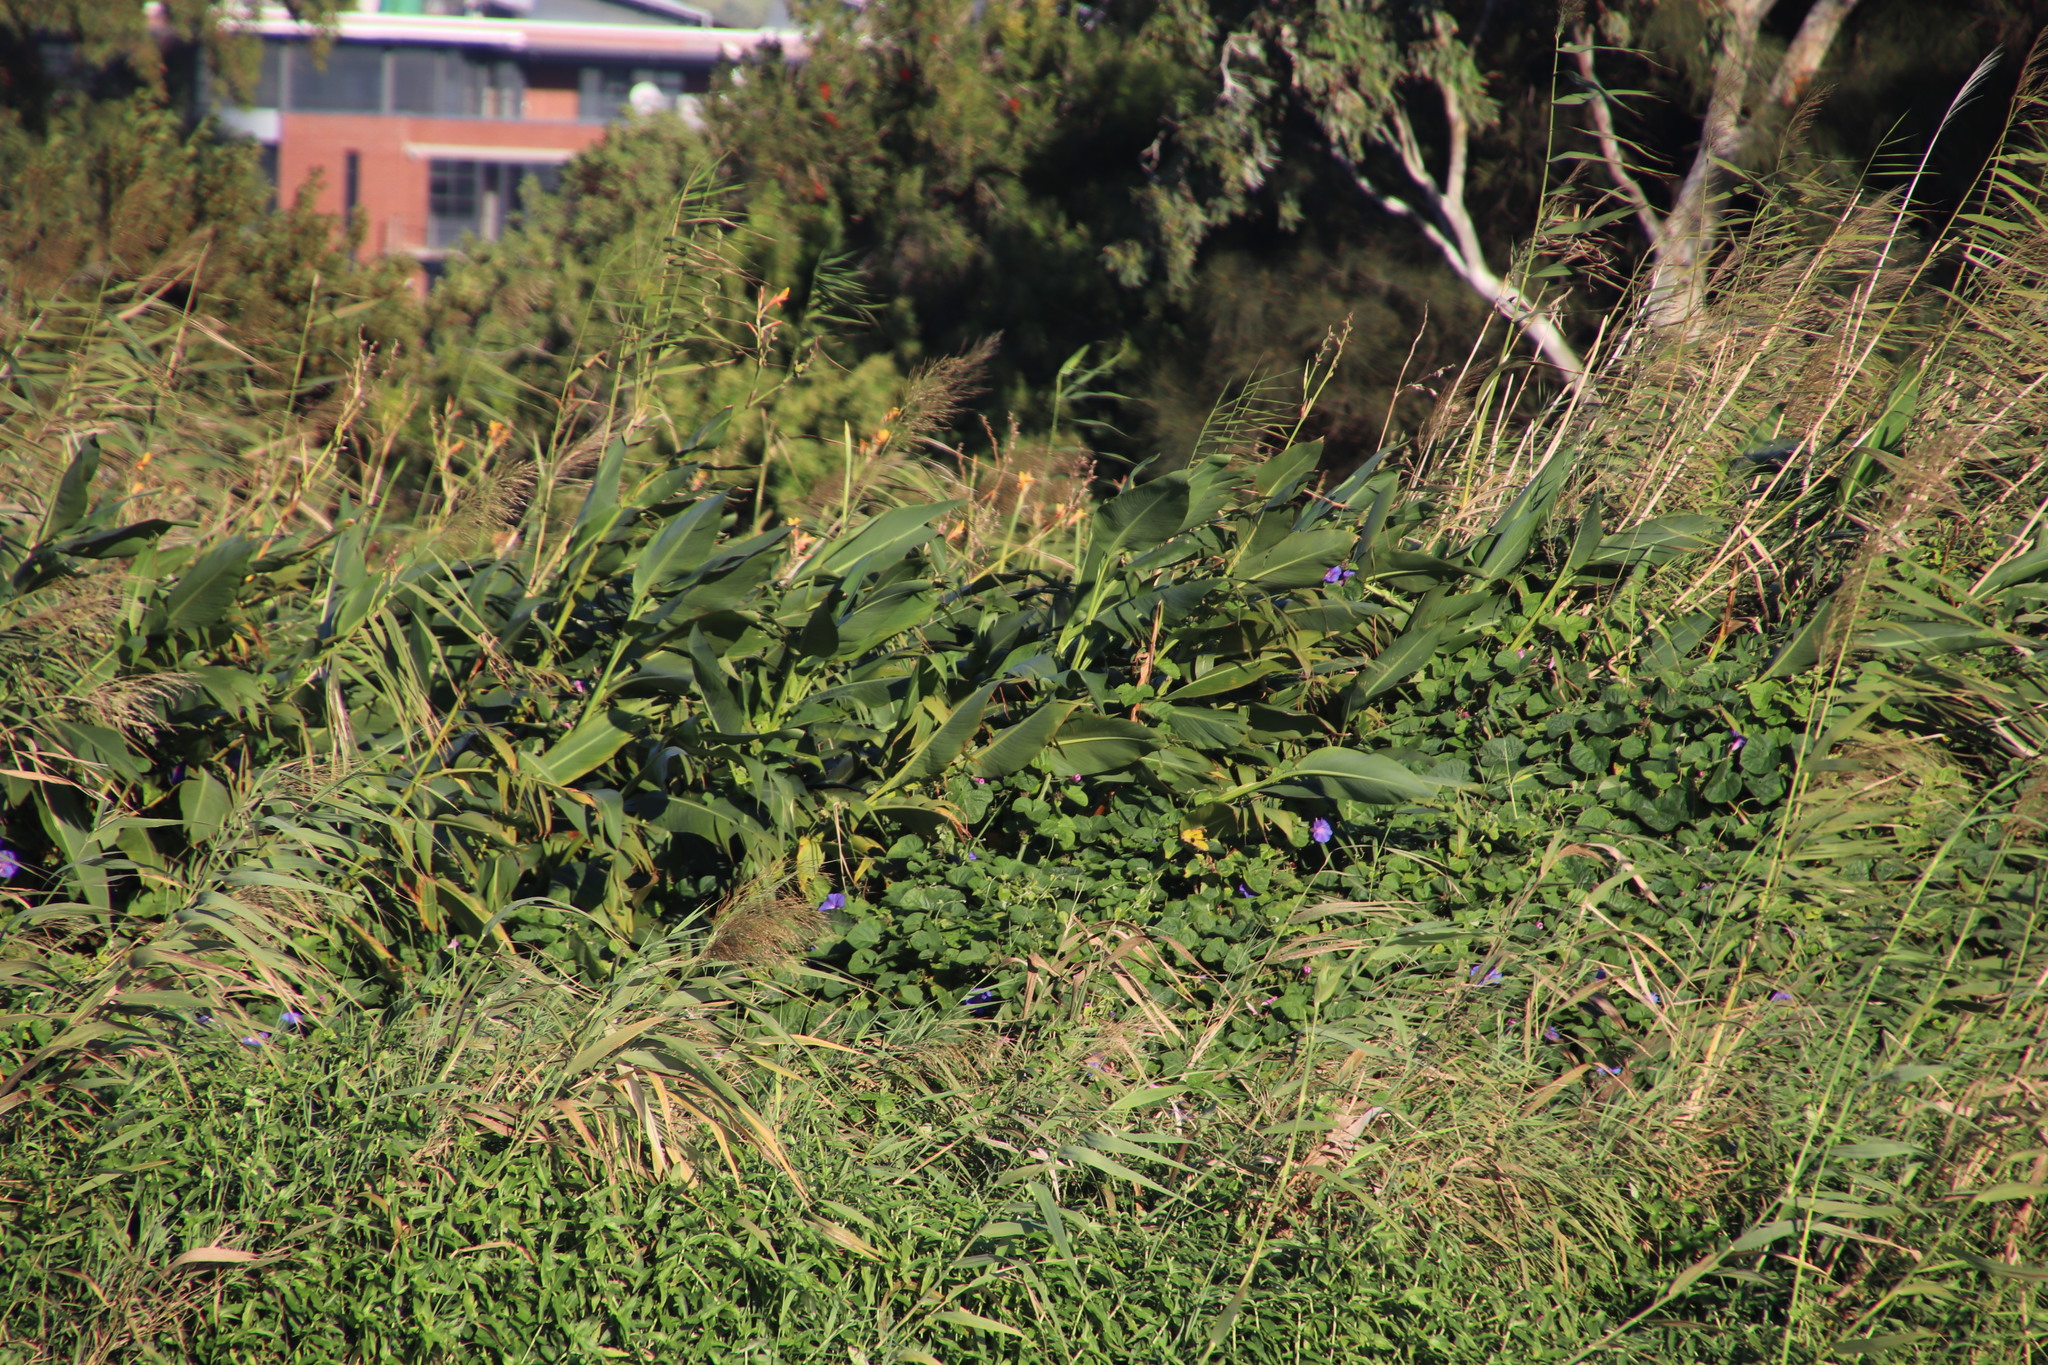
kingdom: Plantae
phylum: Tracheophyta
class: Liliopsida
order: Zingiberales
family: Cannaceae
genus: Canna
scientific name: Canna indica
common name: Indian shot
